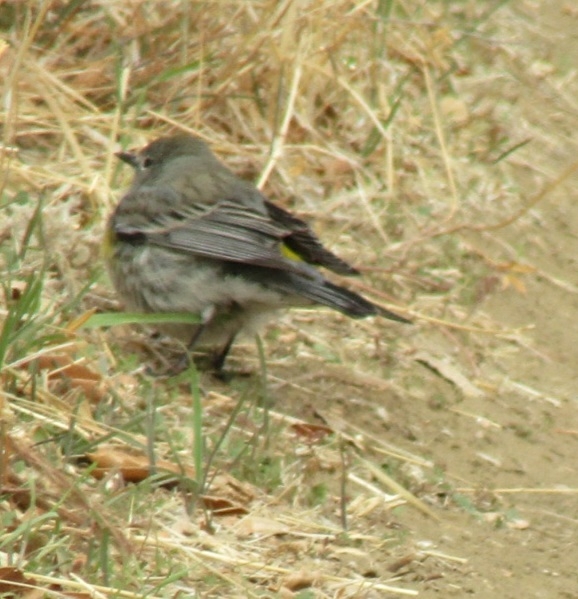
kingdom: Animalia
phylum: Chordata
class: Aves
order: Passeriformes
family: Parulidae
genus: Setophaga
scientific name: Setophaga coronata
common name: Myrtle warbler
